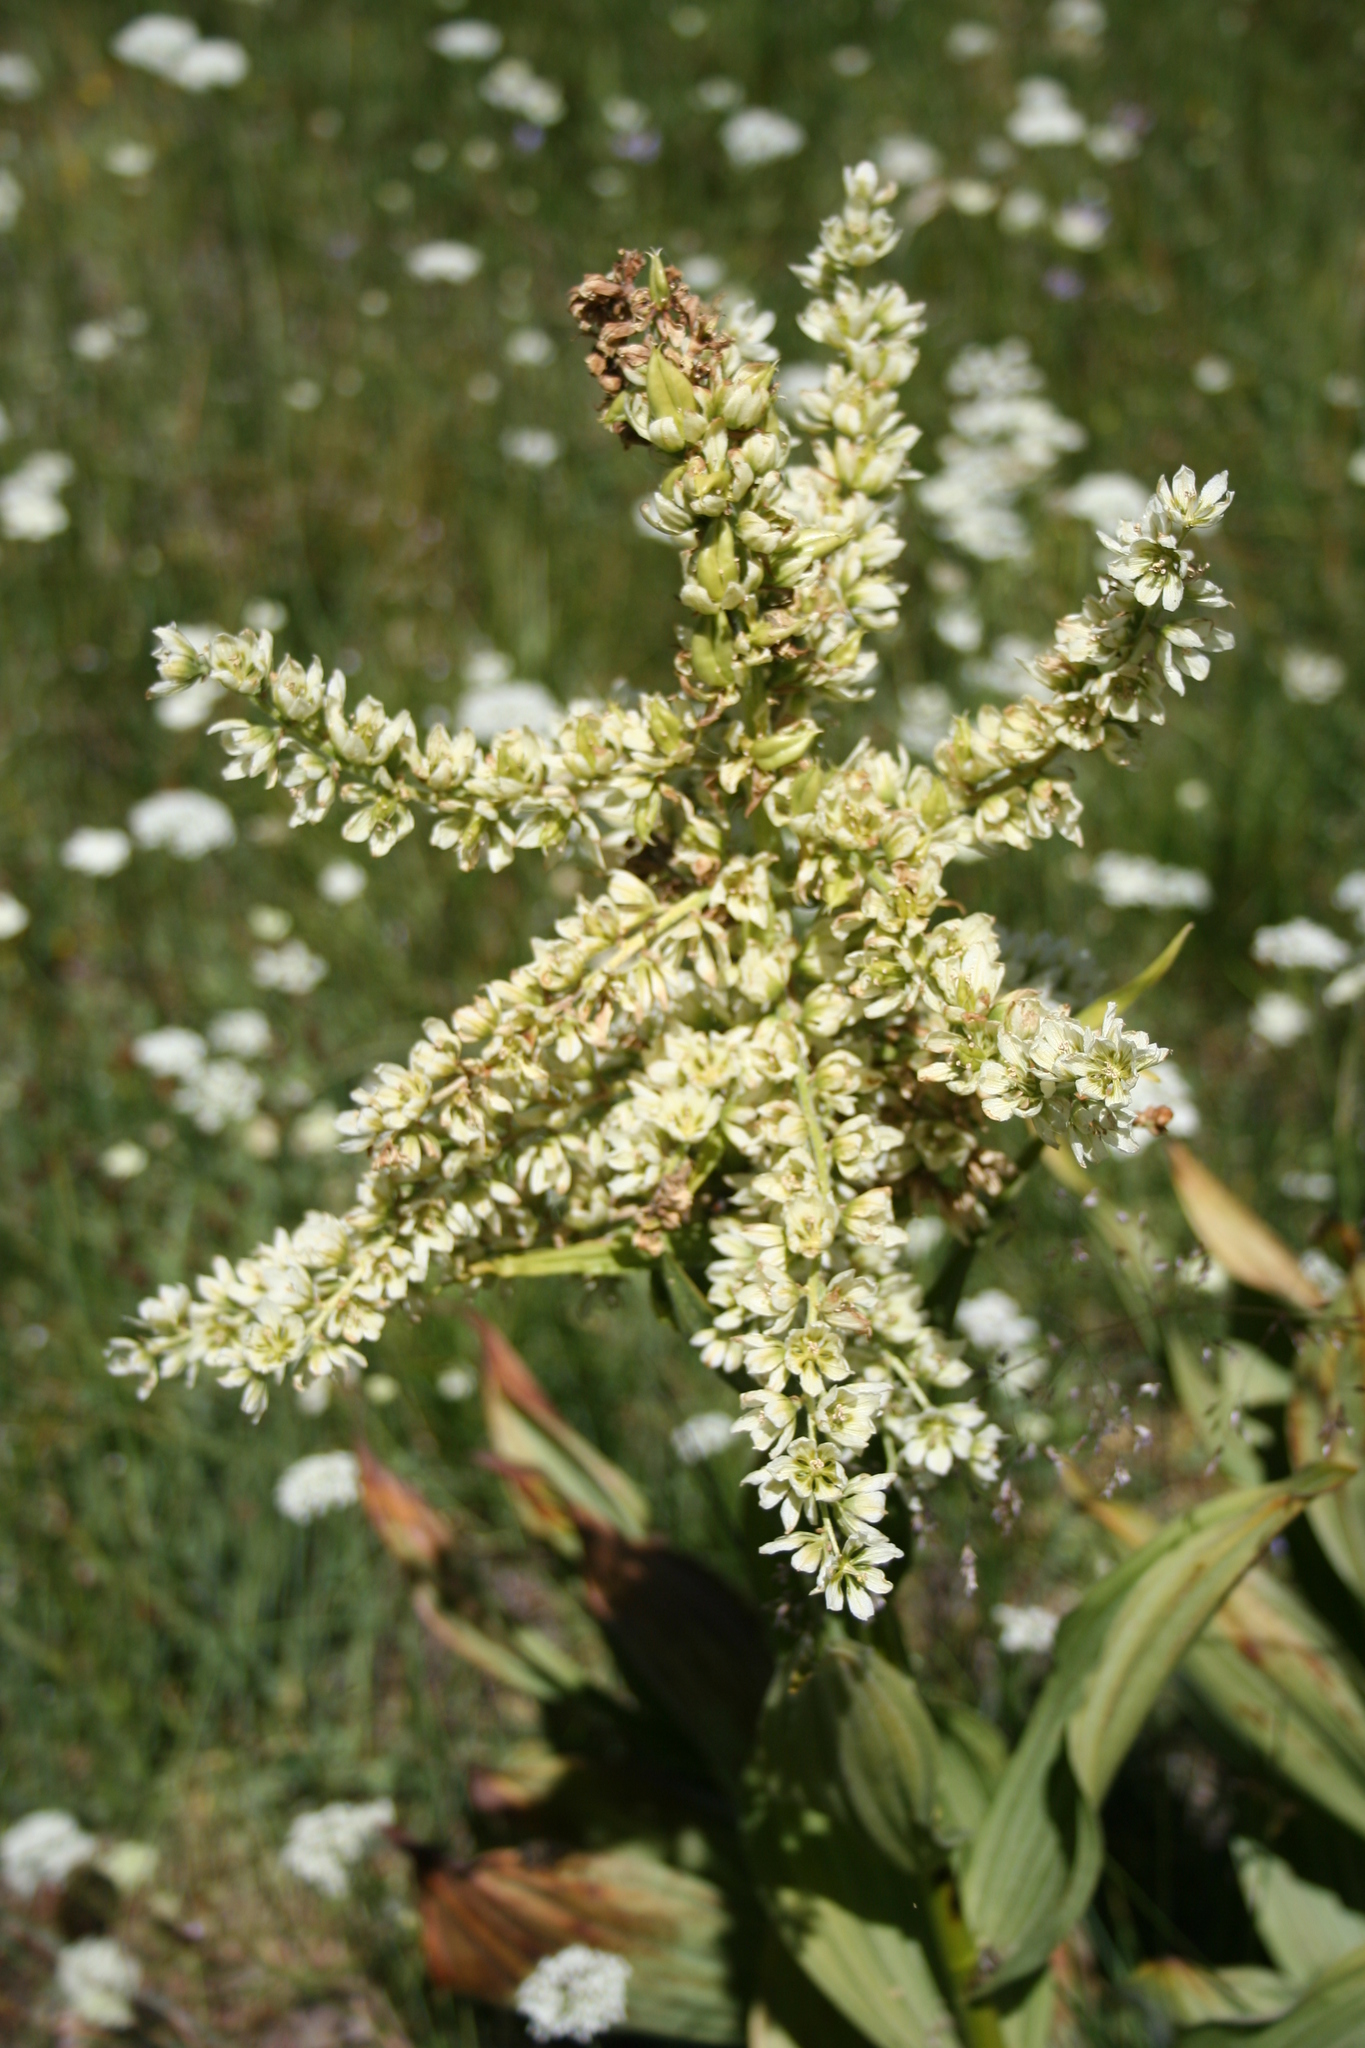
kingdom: Plantae
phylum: Tracheophyta
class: Liliopsida
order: Liliales
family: Melanthiaceae
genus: Veratrum
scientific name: Veratrum californicum
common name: California veratrum
